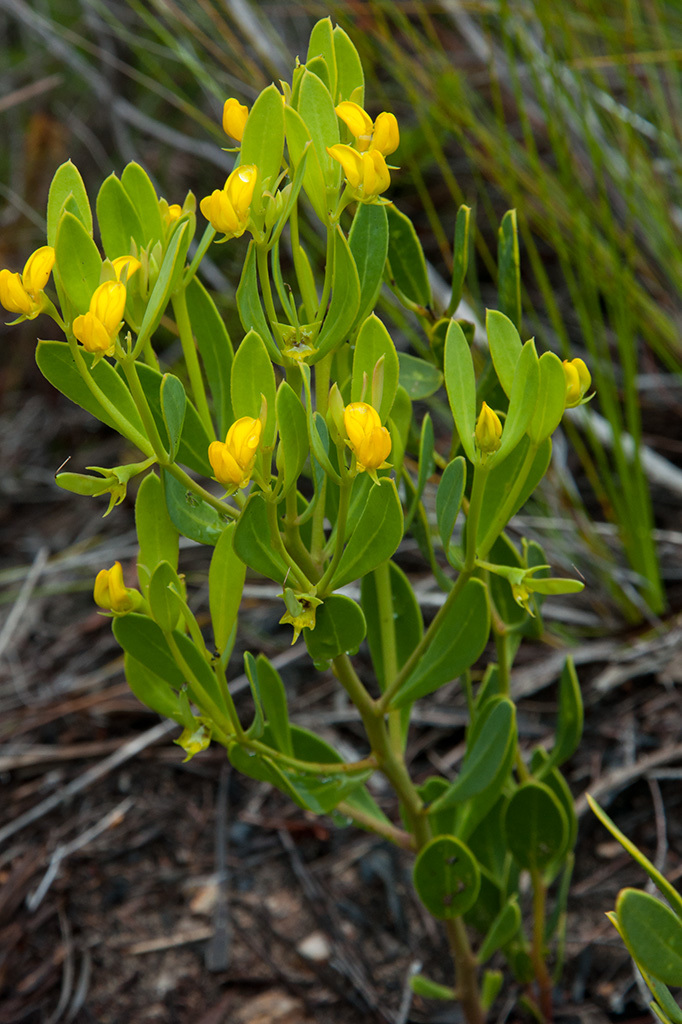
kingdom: Plantae
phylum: Tracheophyta
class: Magnoliopsida
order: Fabales
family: Fabaceae
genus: Rafnia
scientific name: Rafnia capensis
